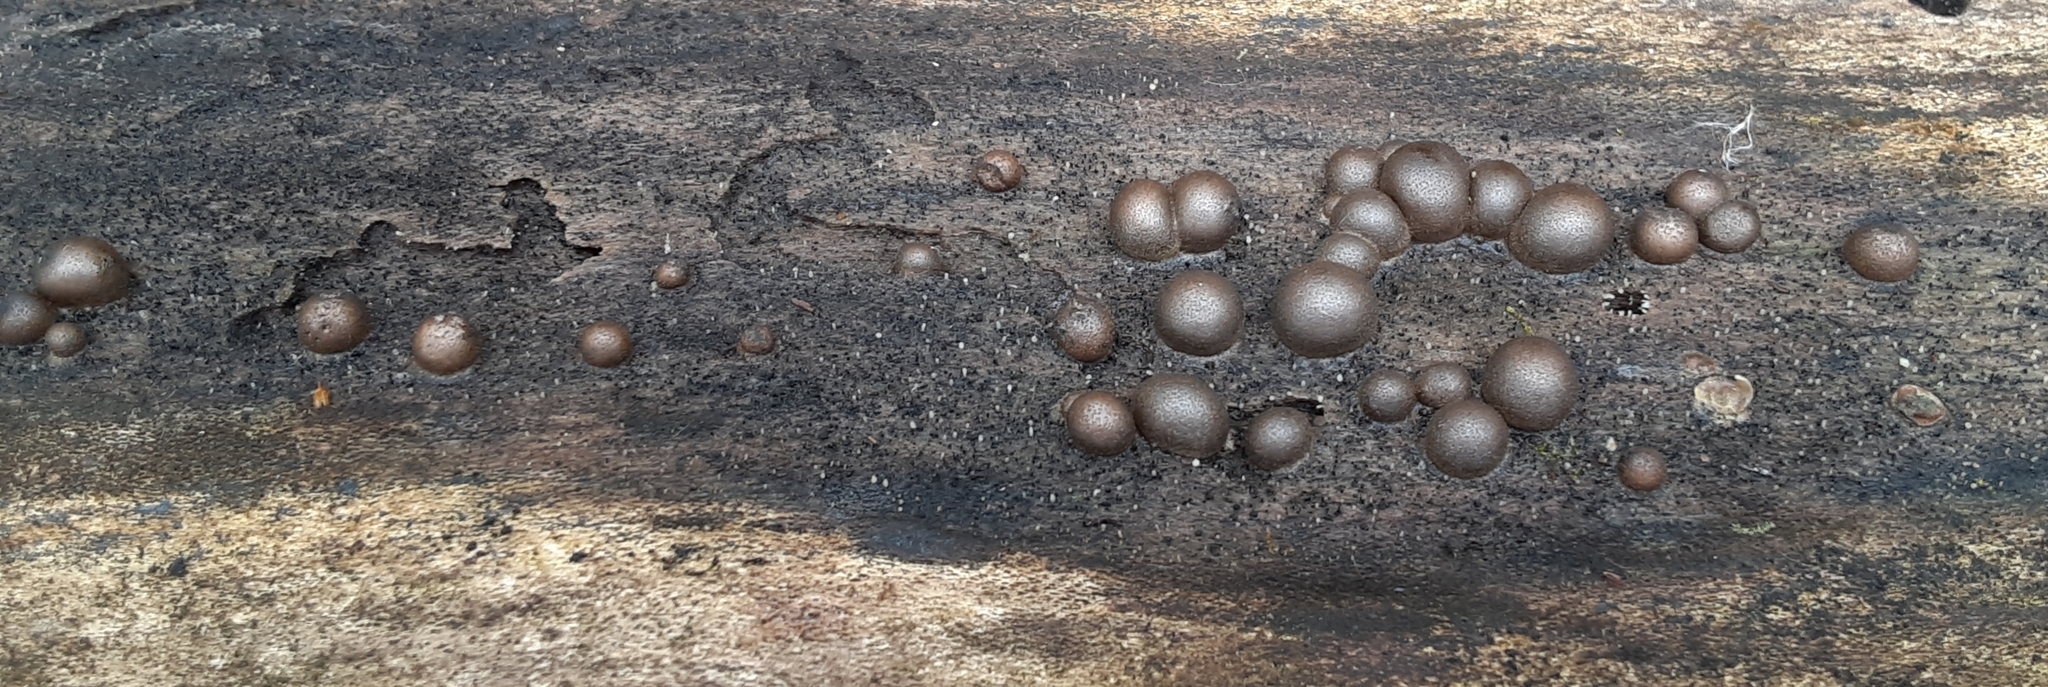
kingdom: Protozoa
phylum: Mycetozoa
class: Myxomycetes
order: Cribrariales
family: Tubiferaceae
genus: Lycogala
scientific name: Lycogala epidendrum
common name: Wolf's milk
